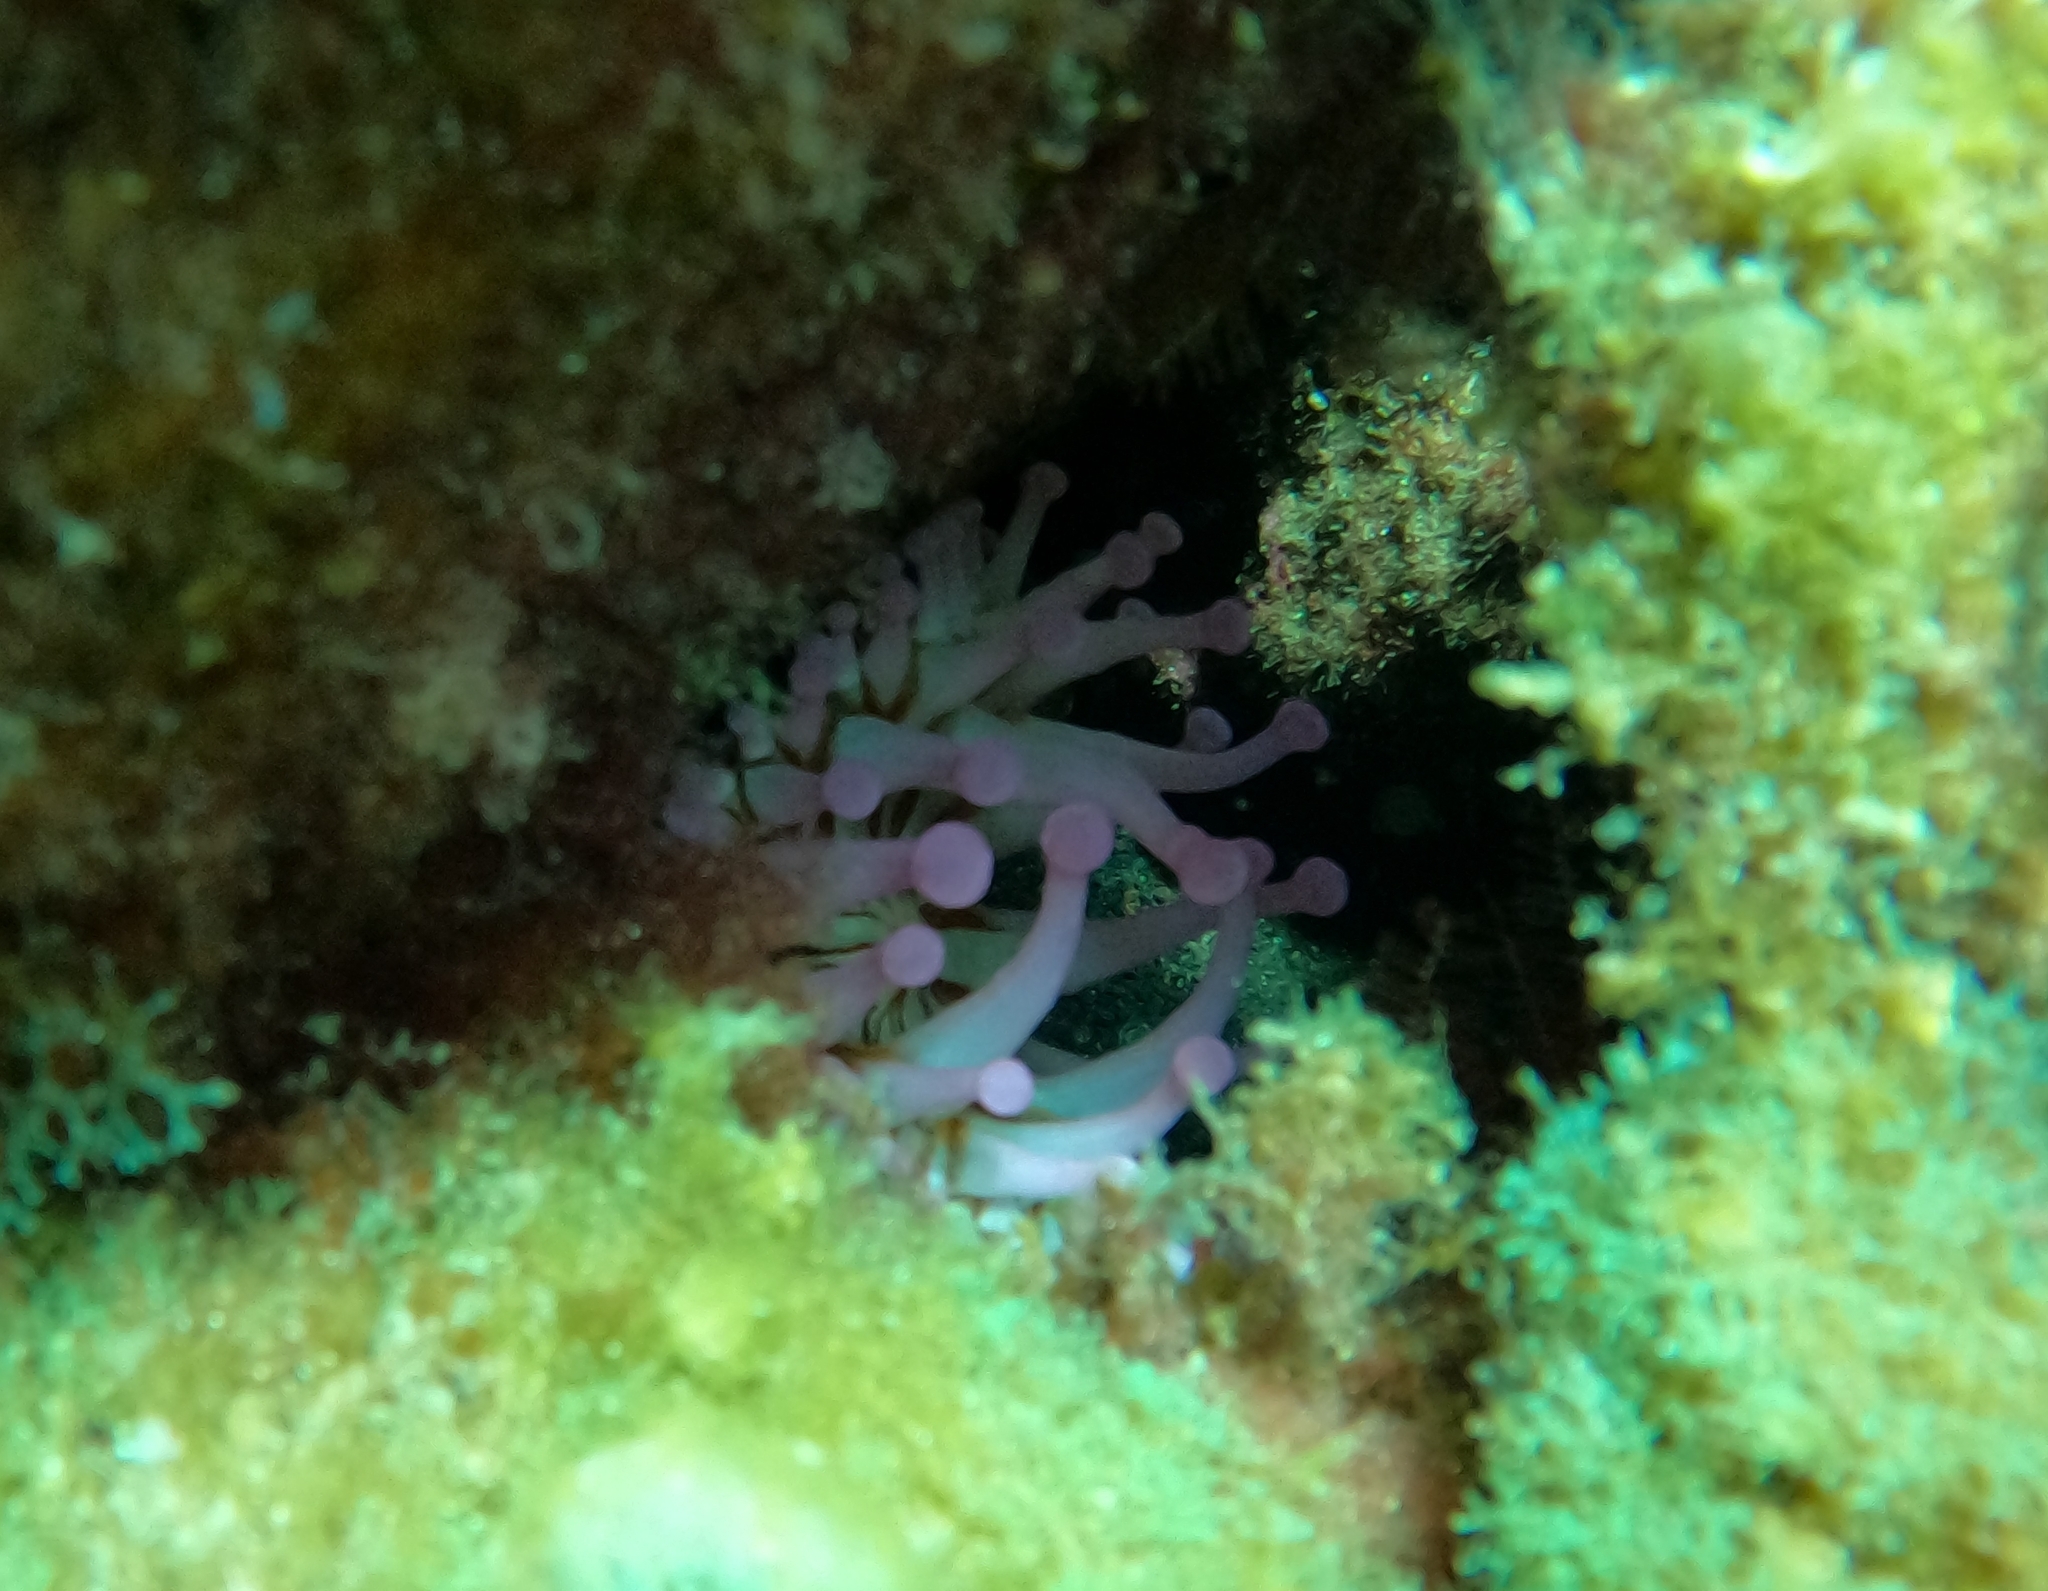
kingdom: Animalia
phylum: Cnidaria
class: Anthozoa
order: Actiniaria
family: Andvakiidae
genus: Telmatactis
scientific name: Telmatactis cricoides
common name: Blunt-tentacled anemone
